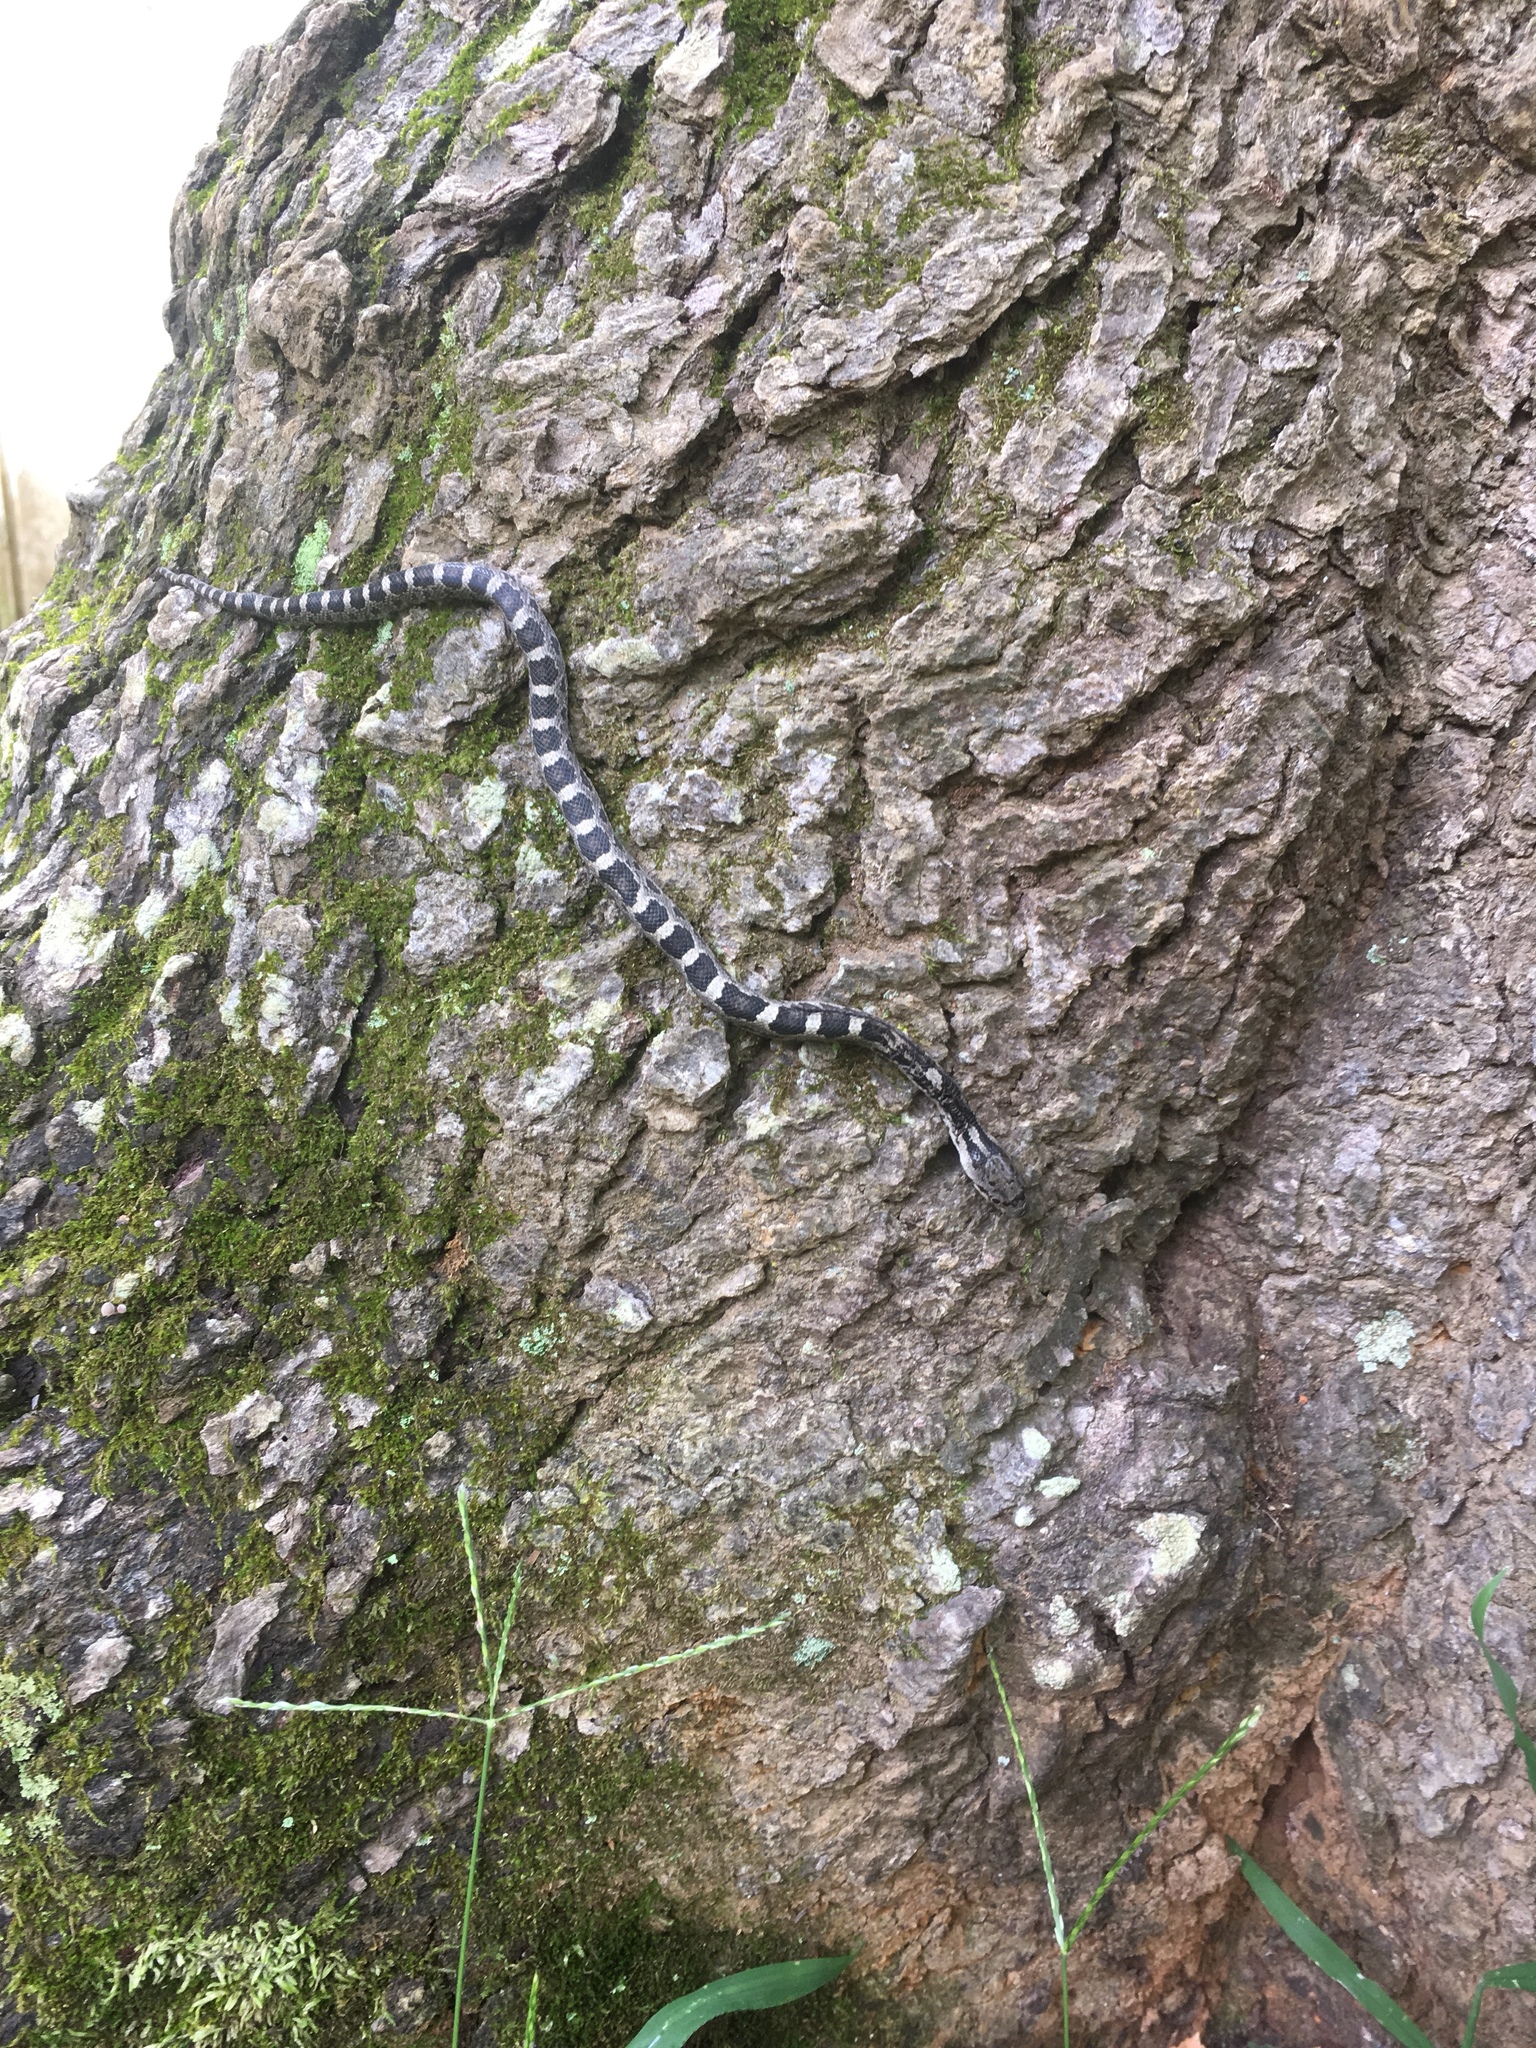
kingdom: Animalia
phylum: Chordata
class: Squamata
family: Colubridae
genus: Pantherophis
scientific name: Pantherophis alleghaniensis
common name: Eastern rat snake
